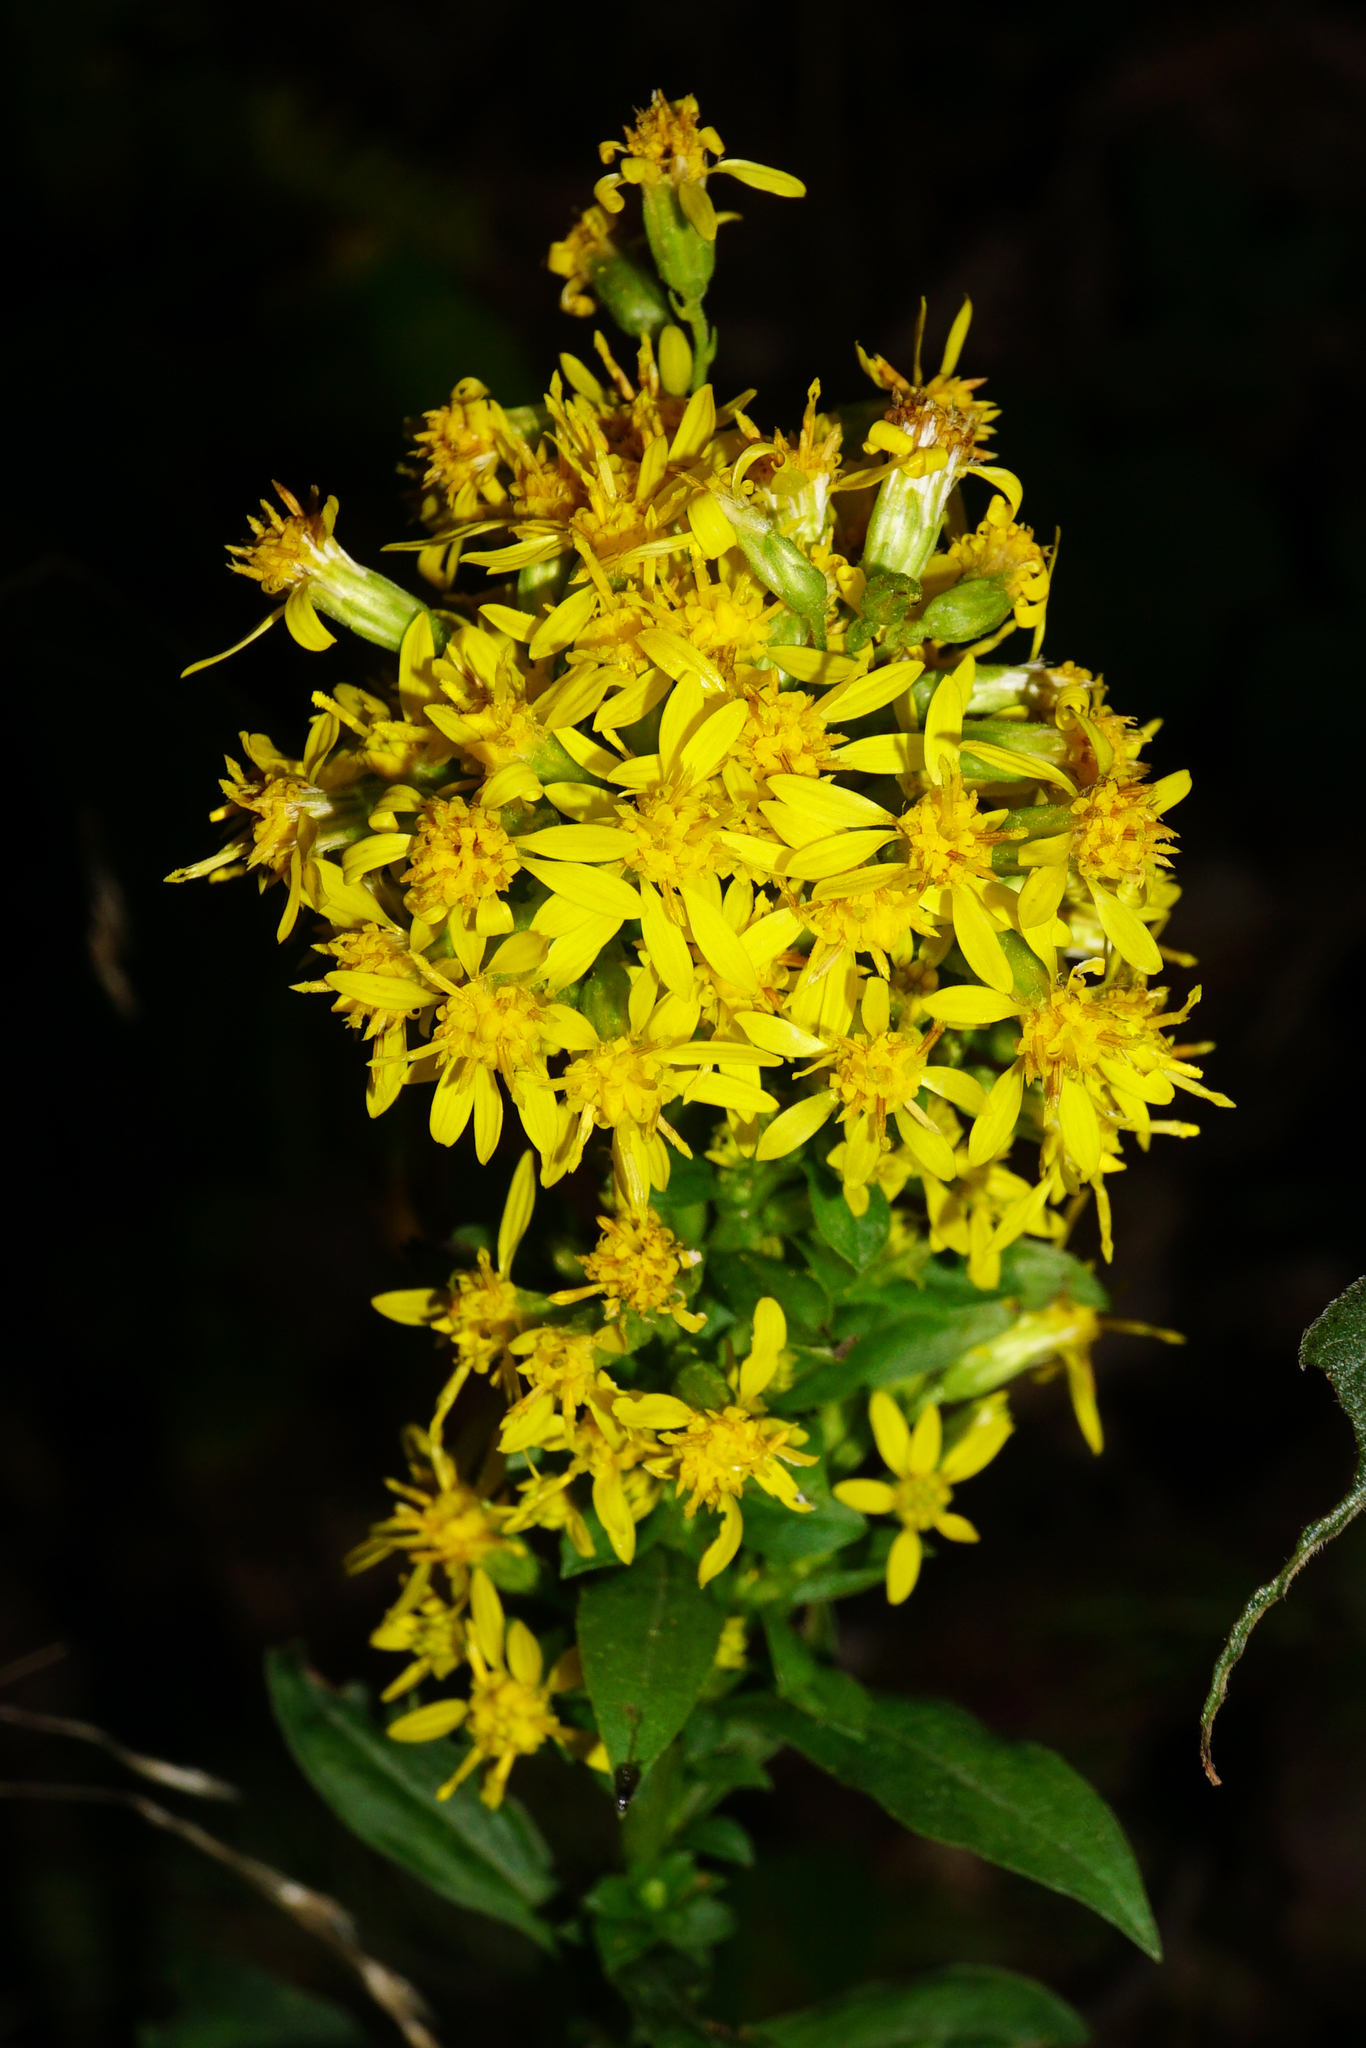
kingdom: Plantae
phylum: Tracheophyta
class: Magnoliopsida
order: Asterales
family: Asteraceae
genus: Solidago
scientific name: Solidago virgaurea
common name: Goldenrod
